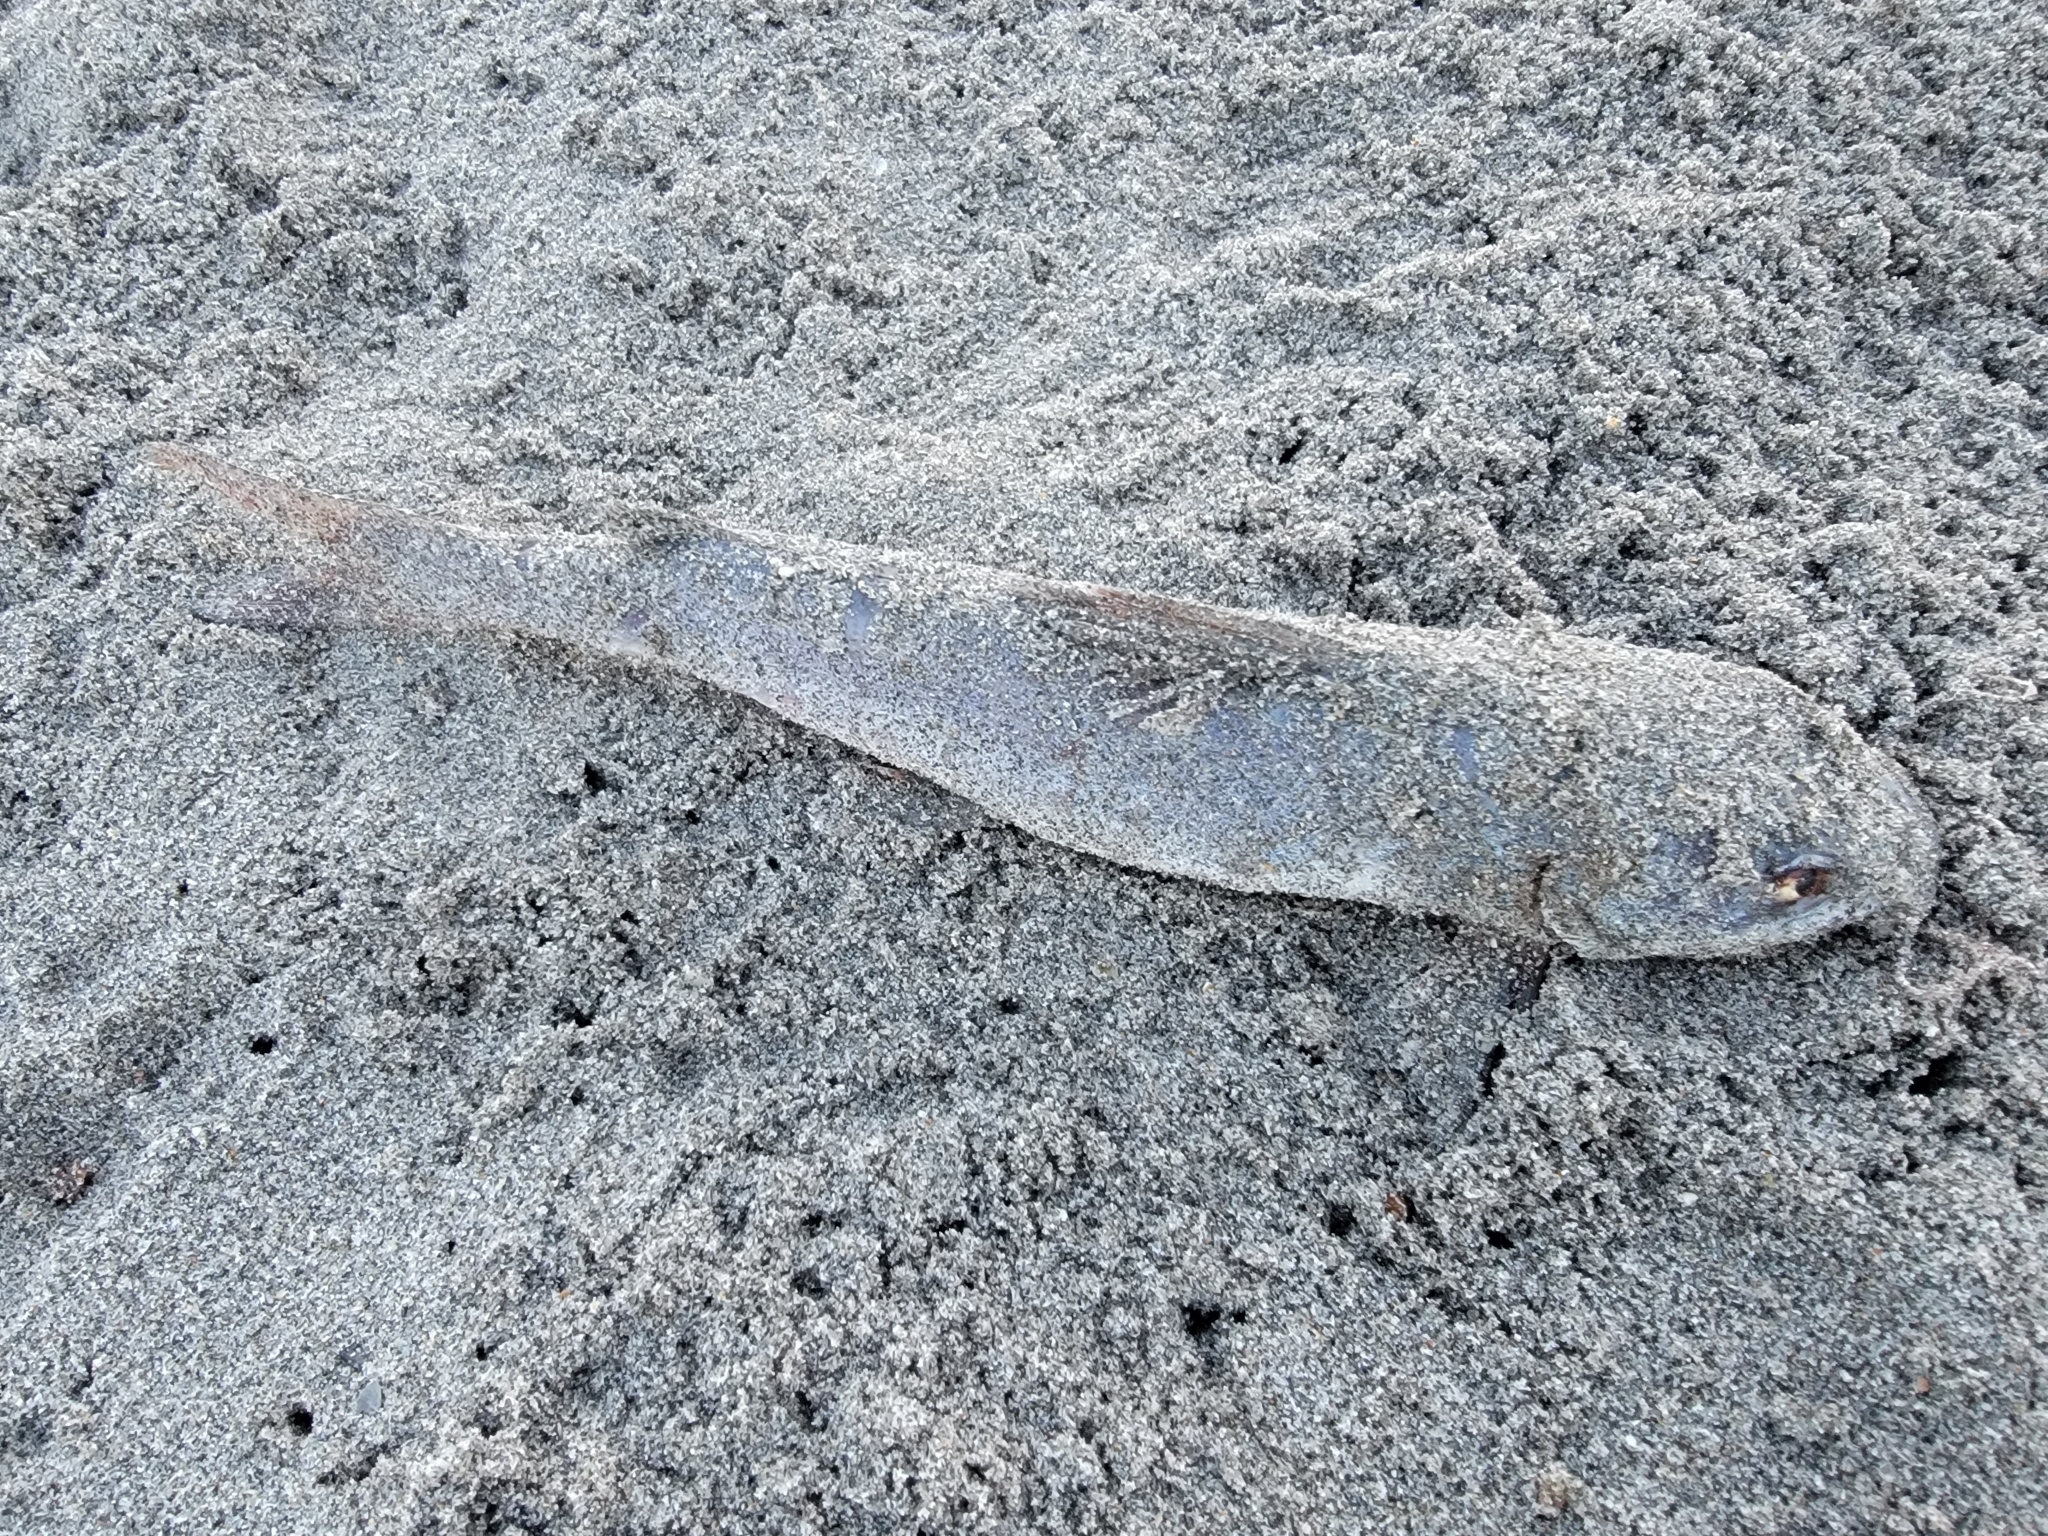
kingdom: Animalia
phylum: Chordata
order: Siluriformes
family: Ariidae
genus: Ariopsis
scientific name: Ariopsis felis
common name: Hardhead catfish
